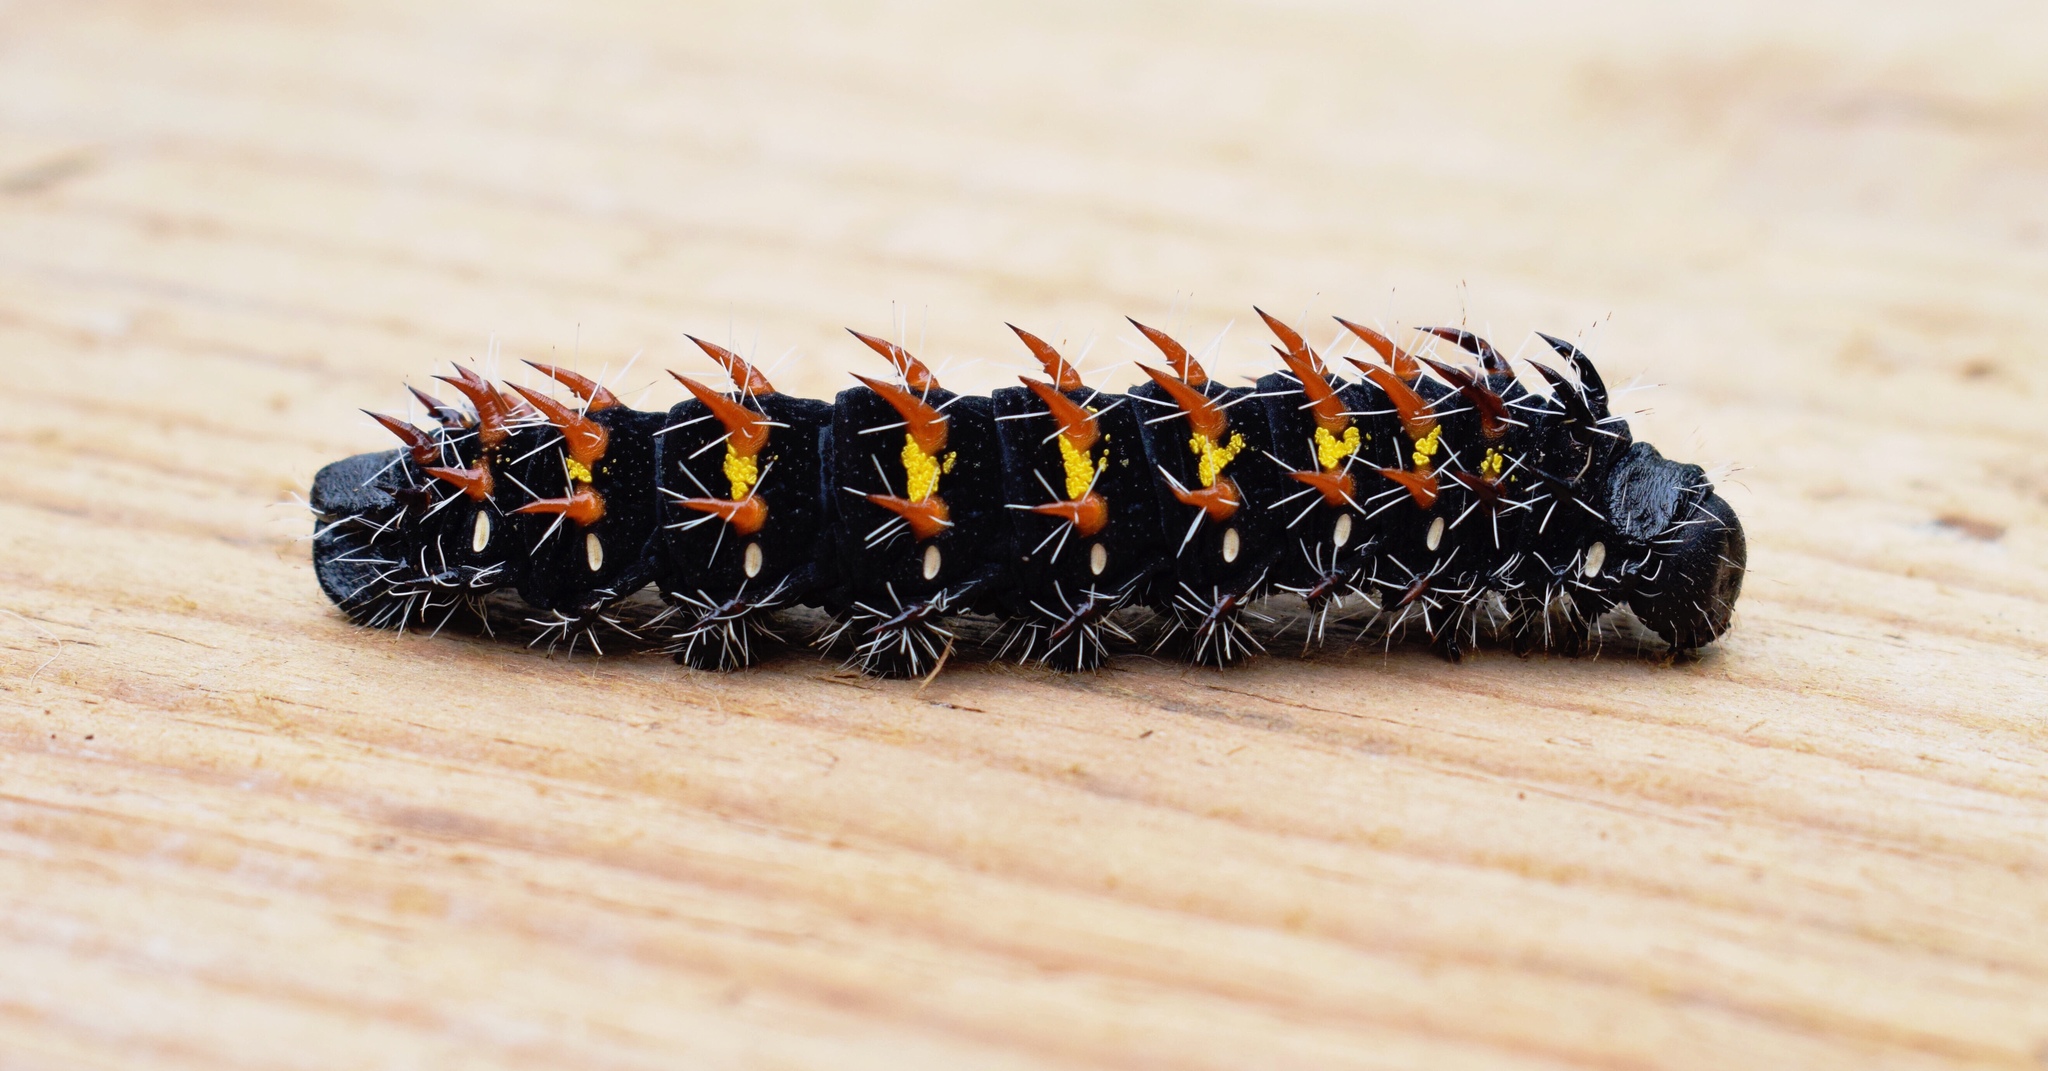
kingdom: Animalia
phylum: Arthropoda
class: Insecta
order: Lepidoptera
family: Saturniidae
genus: Nudaurelia
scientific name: Nudaurelia wahlbergi
